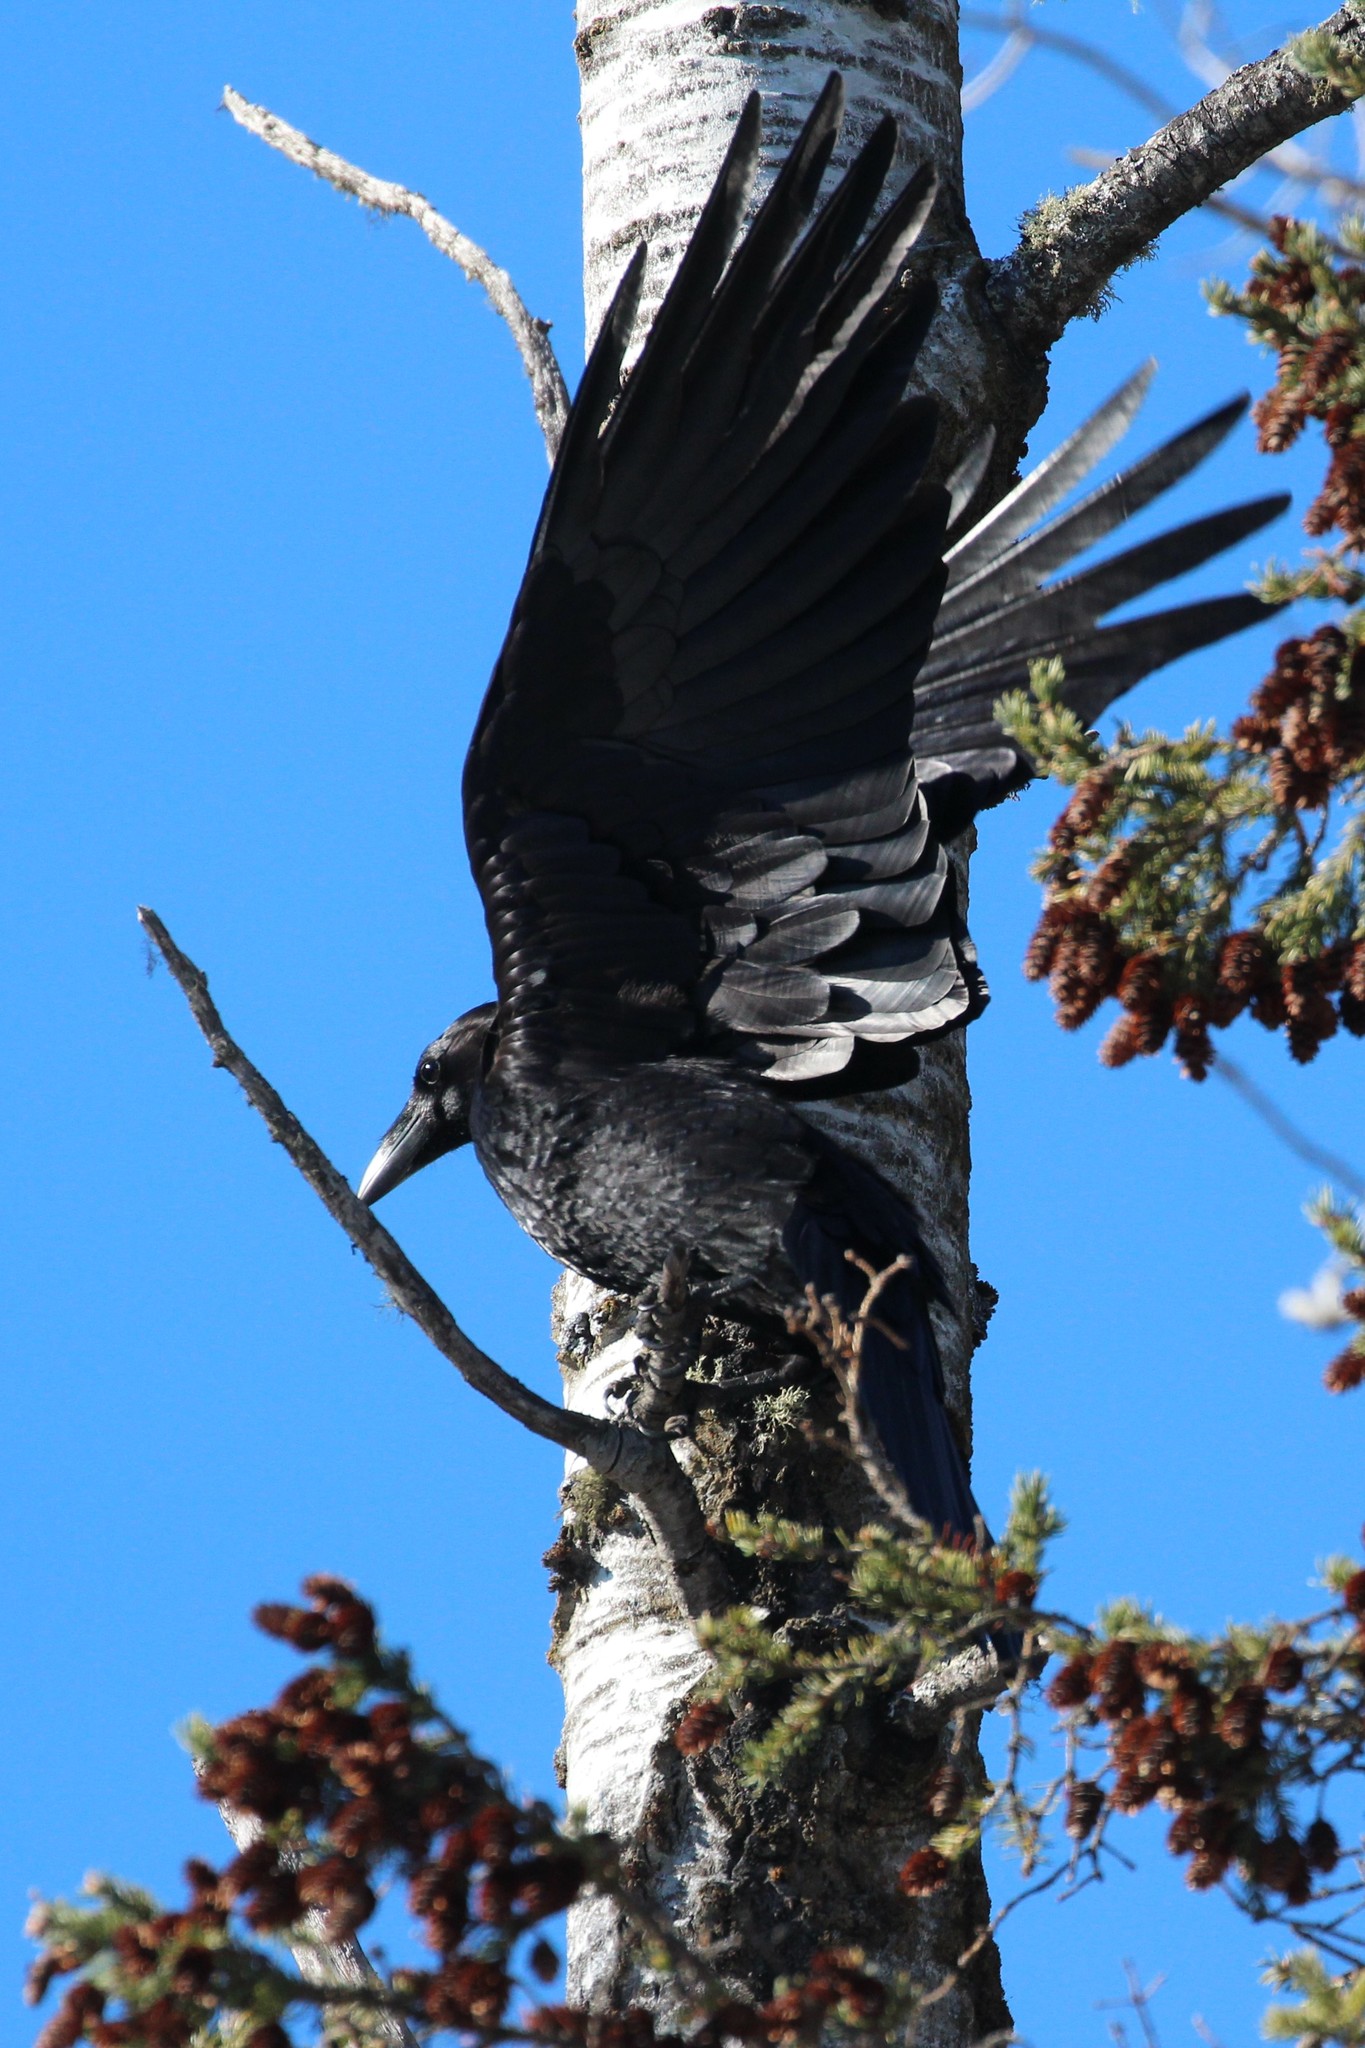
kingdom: Animalia
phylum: Chordata
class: Aves
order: Passeriformes
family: Corvidae
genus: Corvus
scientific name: Corvus corax
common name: Common raven
